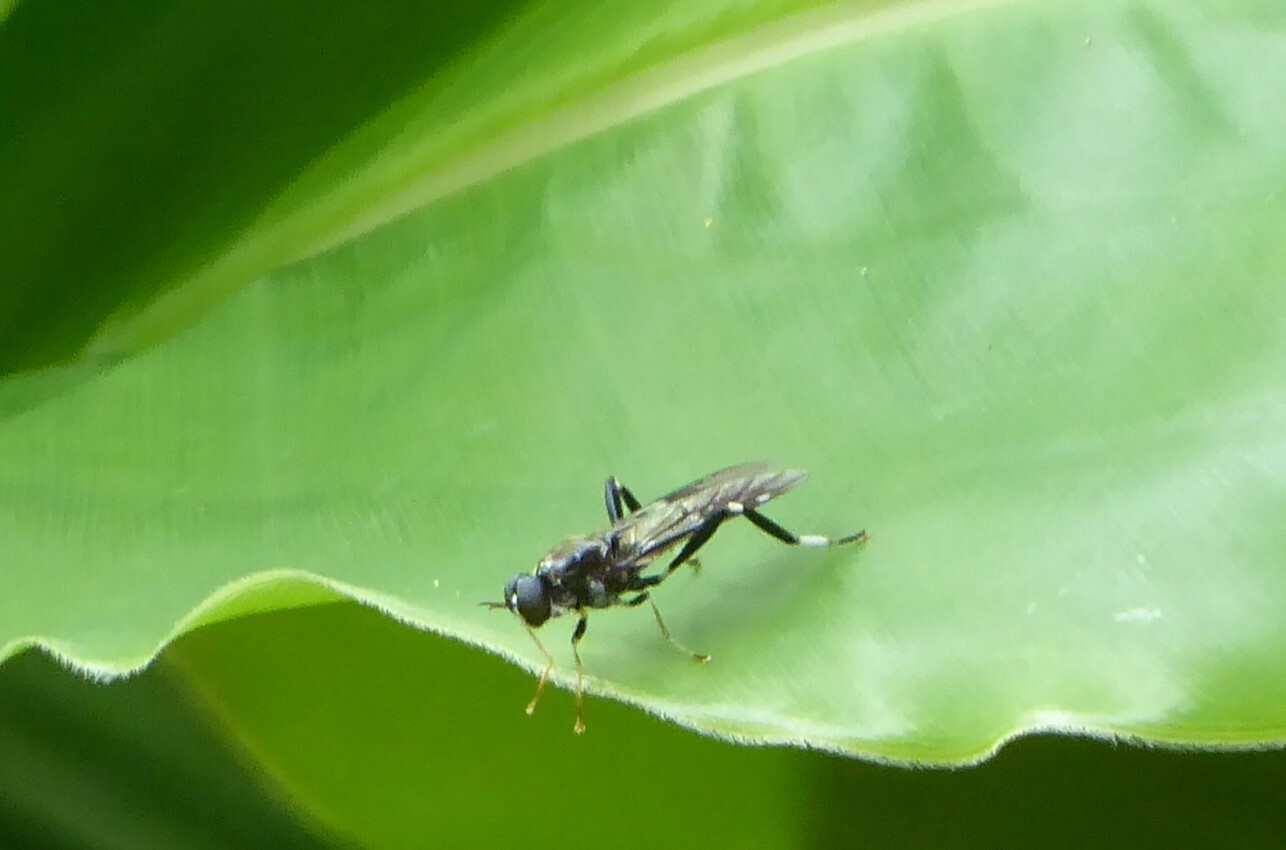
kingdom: Animalia
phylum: Arthropoda
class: Insecta
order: Diptera
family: Stratiomyidae
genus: Exaireta
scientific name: Exaireta spinigera
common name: Blue soldier fly
